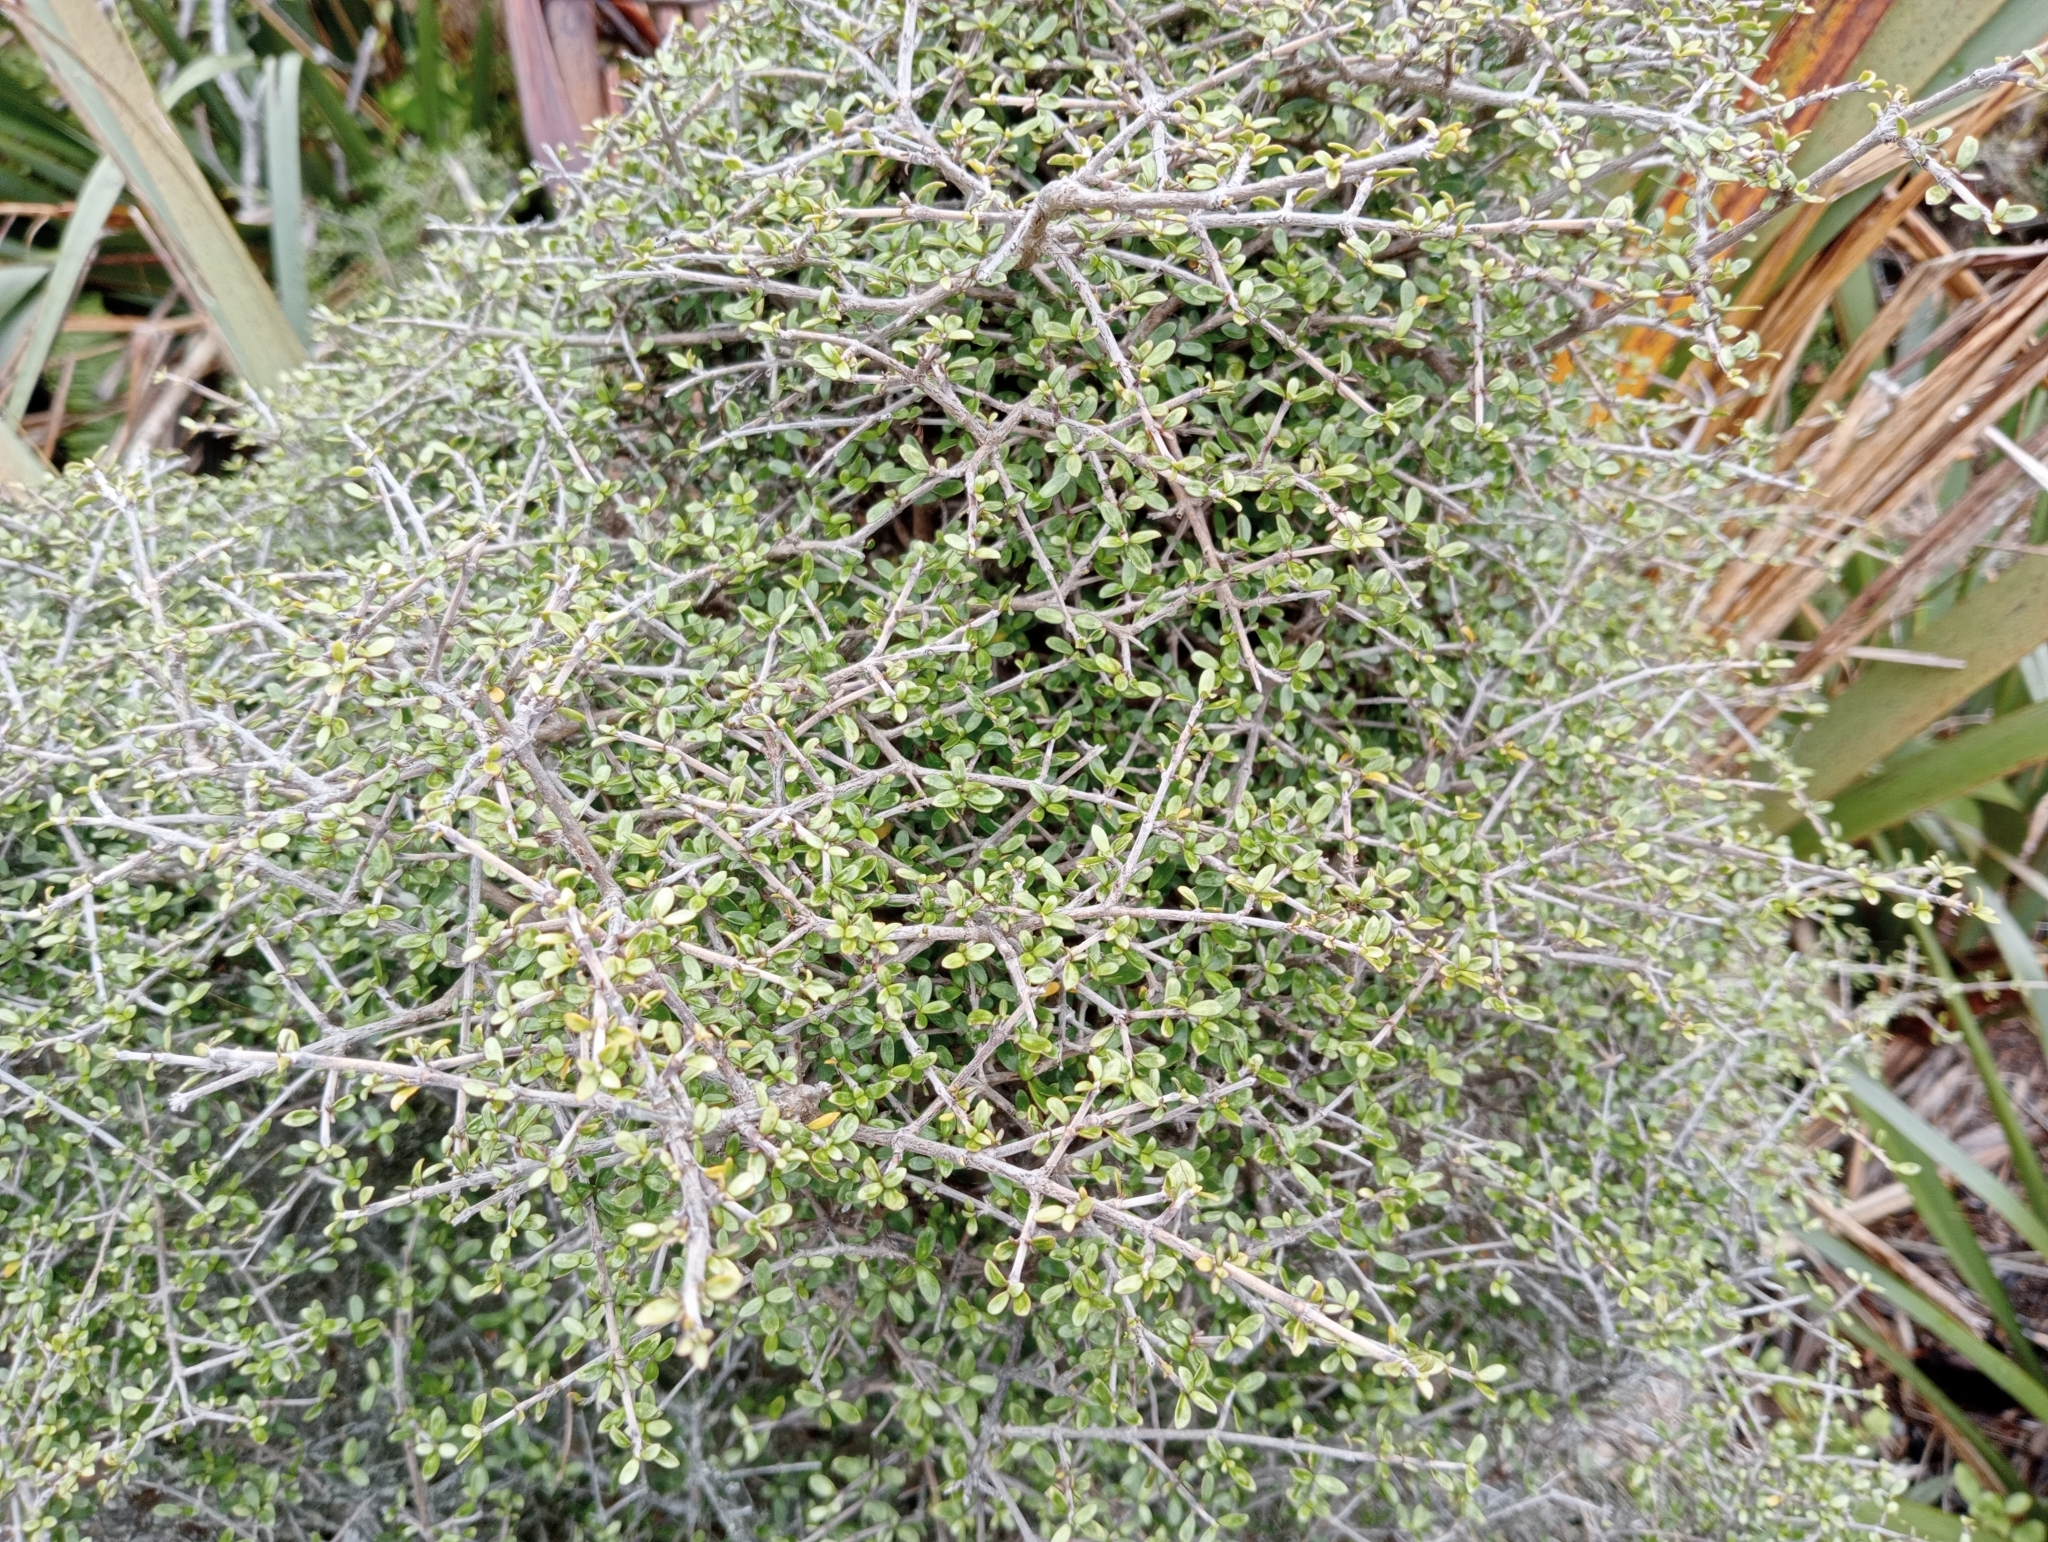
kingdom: Plantae
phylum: Tracheophyta
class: Magnoliopsida
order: Gentianales
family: Rubiaceae
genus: Coprosma
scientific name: Coprosma dumosa
